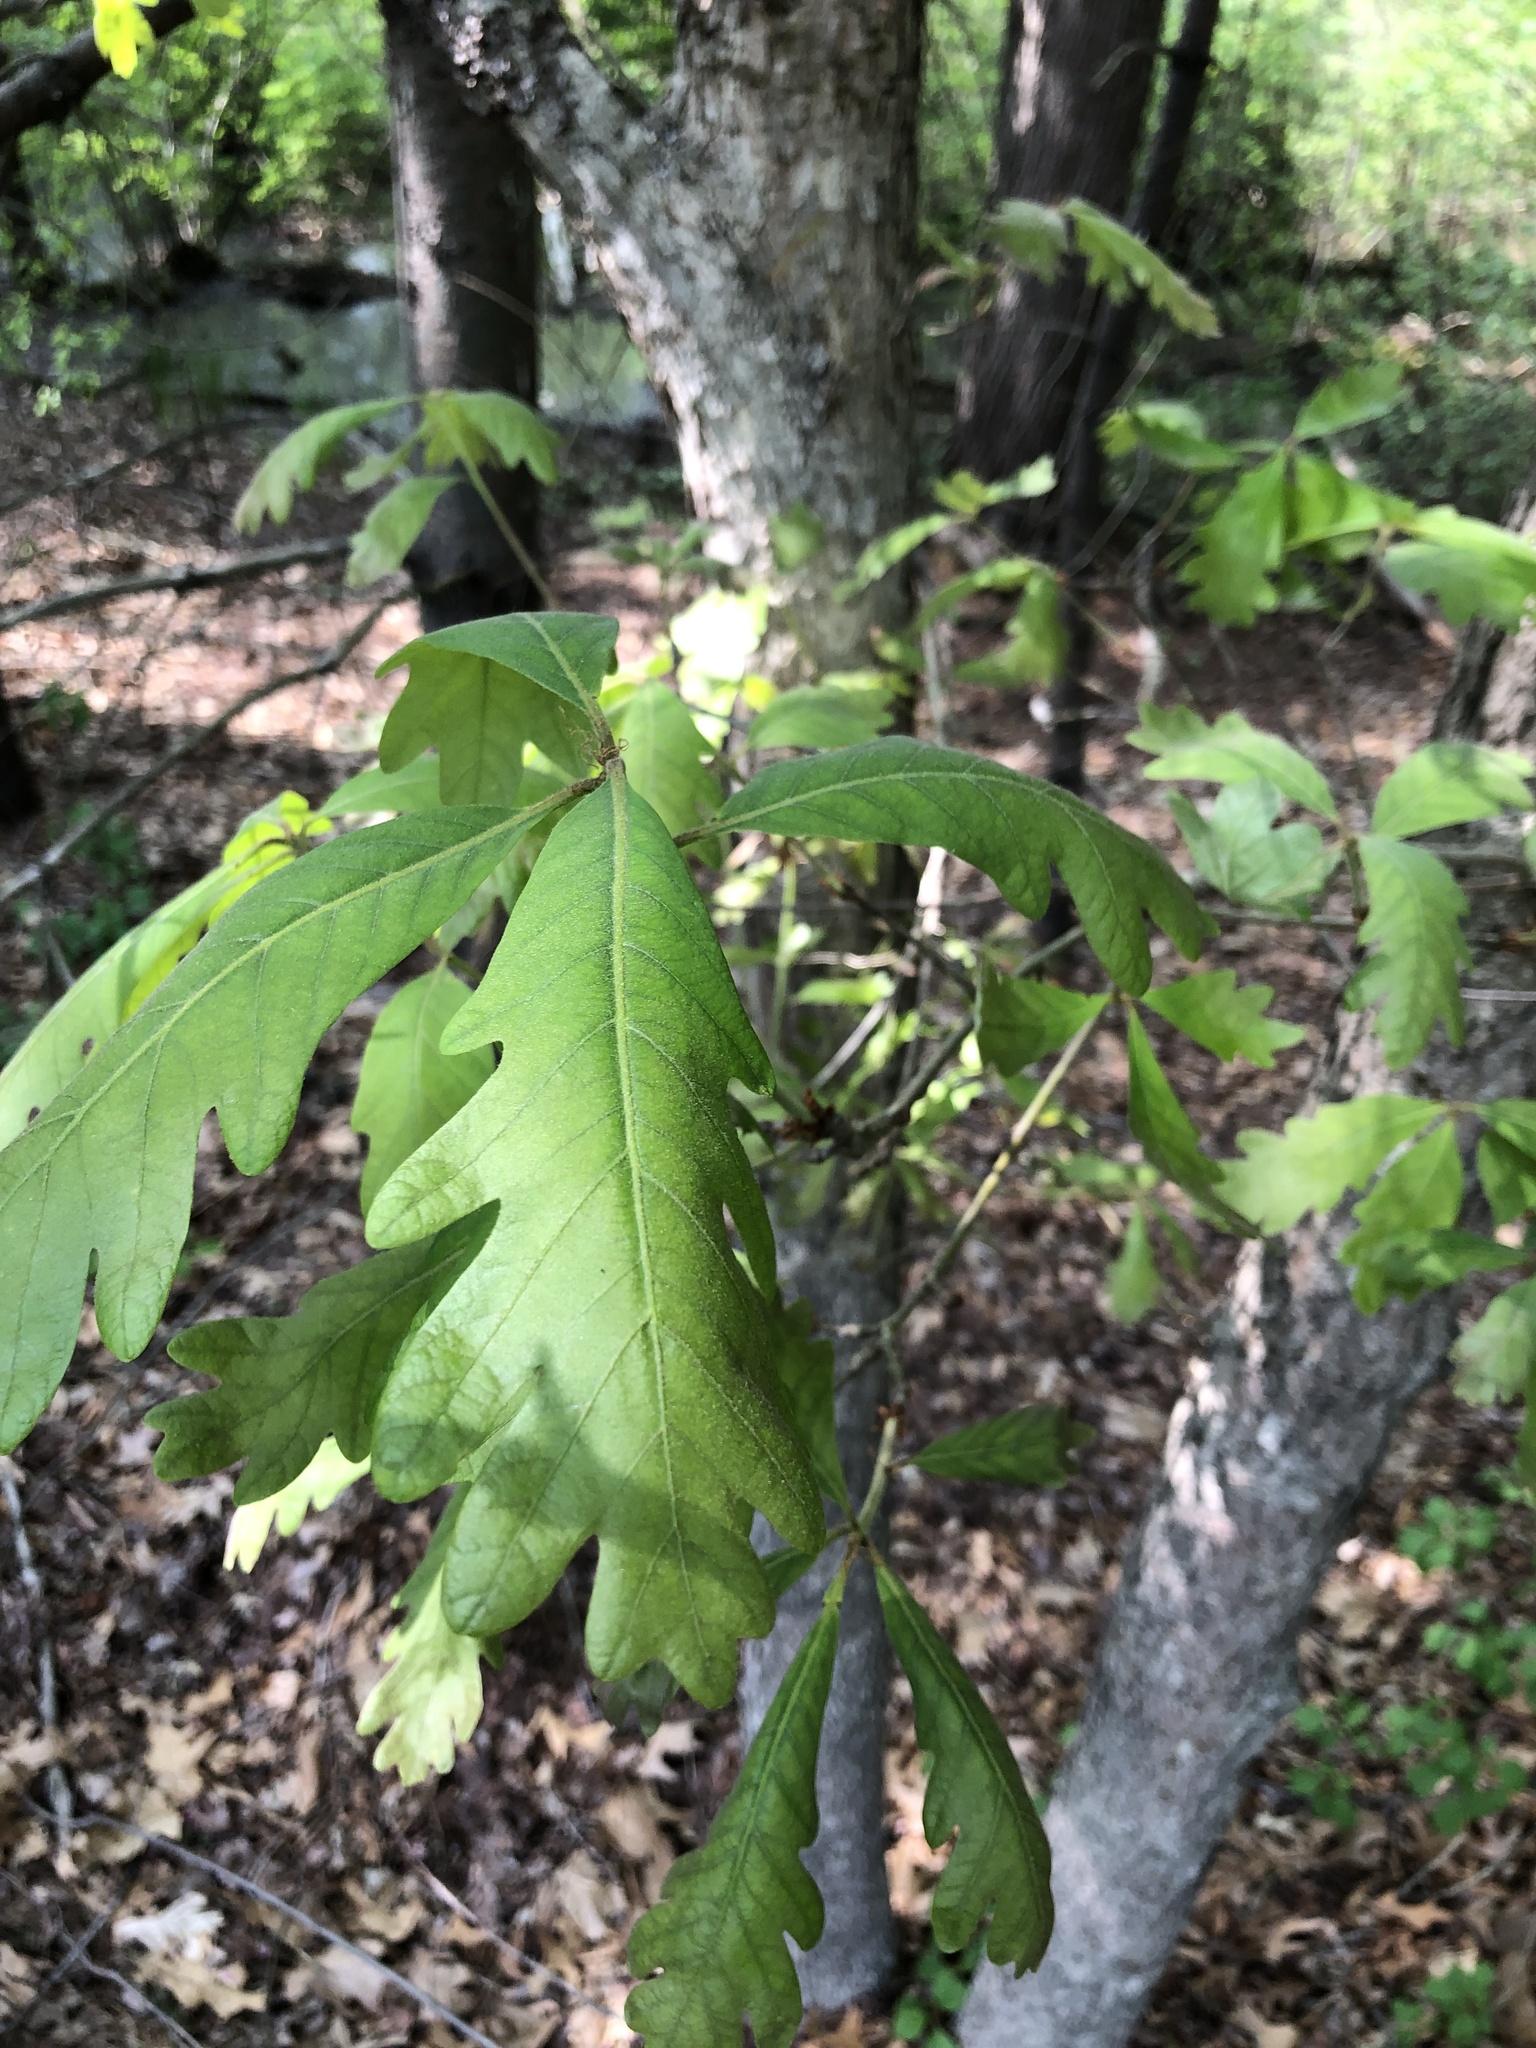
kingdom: Plantae
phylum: Tracheophyta
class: Magnoliopsida
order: Fagales
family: Fagaceae
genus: Quercus
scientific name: Quercus alba
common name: White oak
